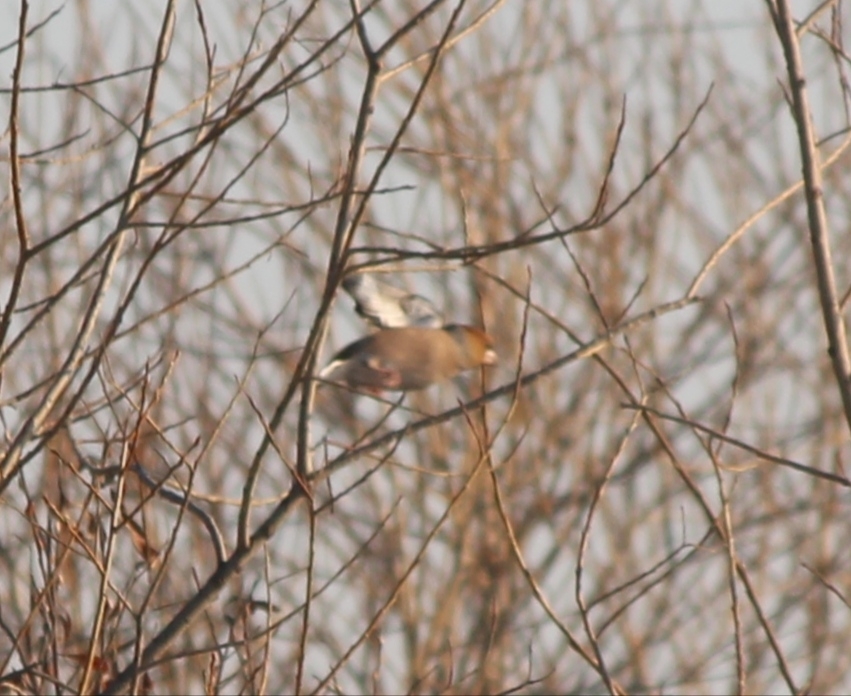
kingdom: Animalia
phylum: Chordata
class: Aves
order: Passeriformes
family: Fringillidae
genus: Coccothraustes
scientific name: Coccothraustes coccothraustes
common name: Hawfinch
